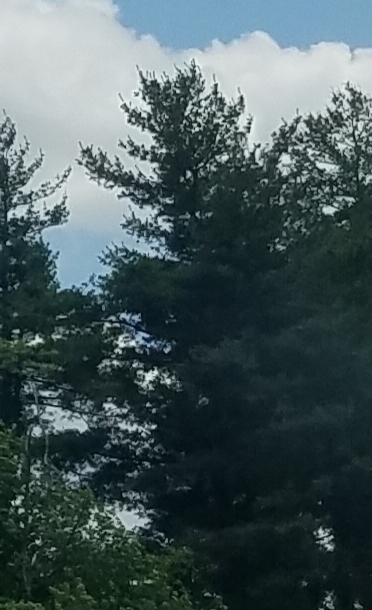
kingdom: Plantae
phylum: Tracheophyta
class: Pinopsida
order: Pinales
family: Pinaceae
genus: Pinus
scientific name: Pinus strobus
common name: Weymouth pine
